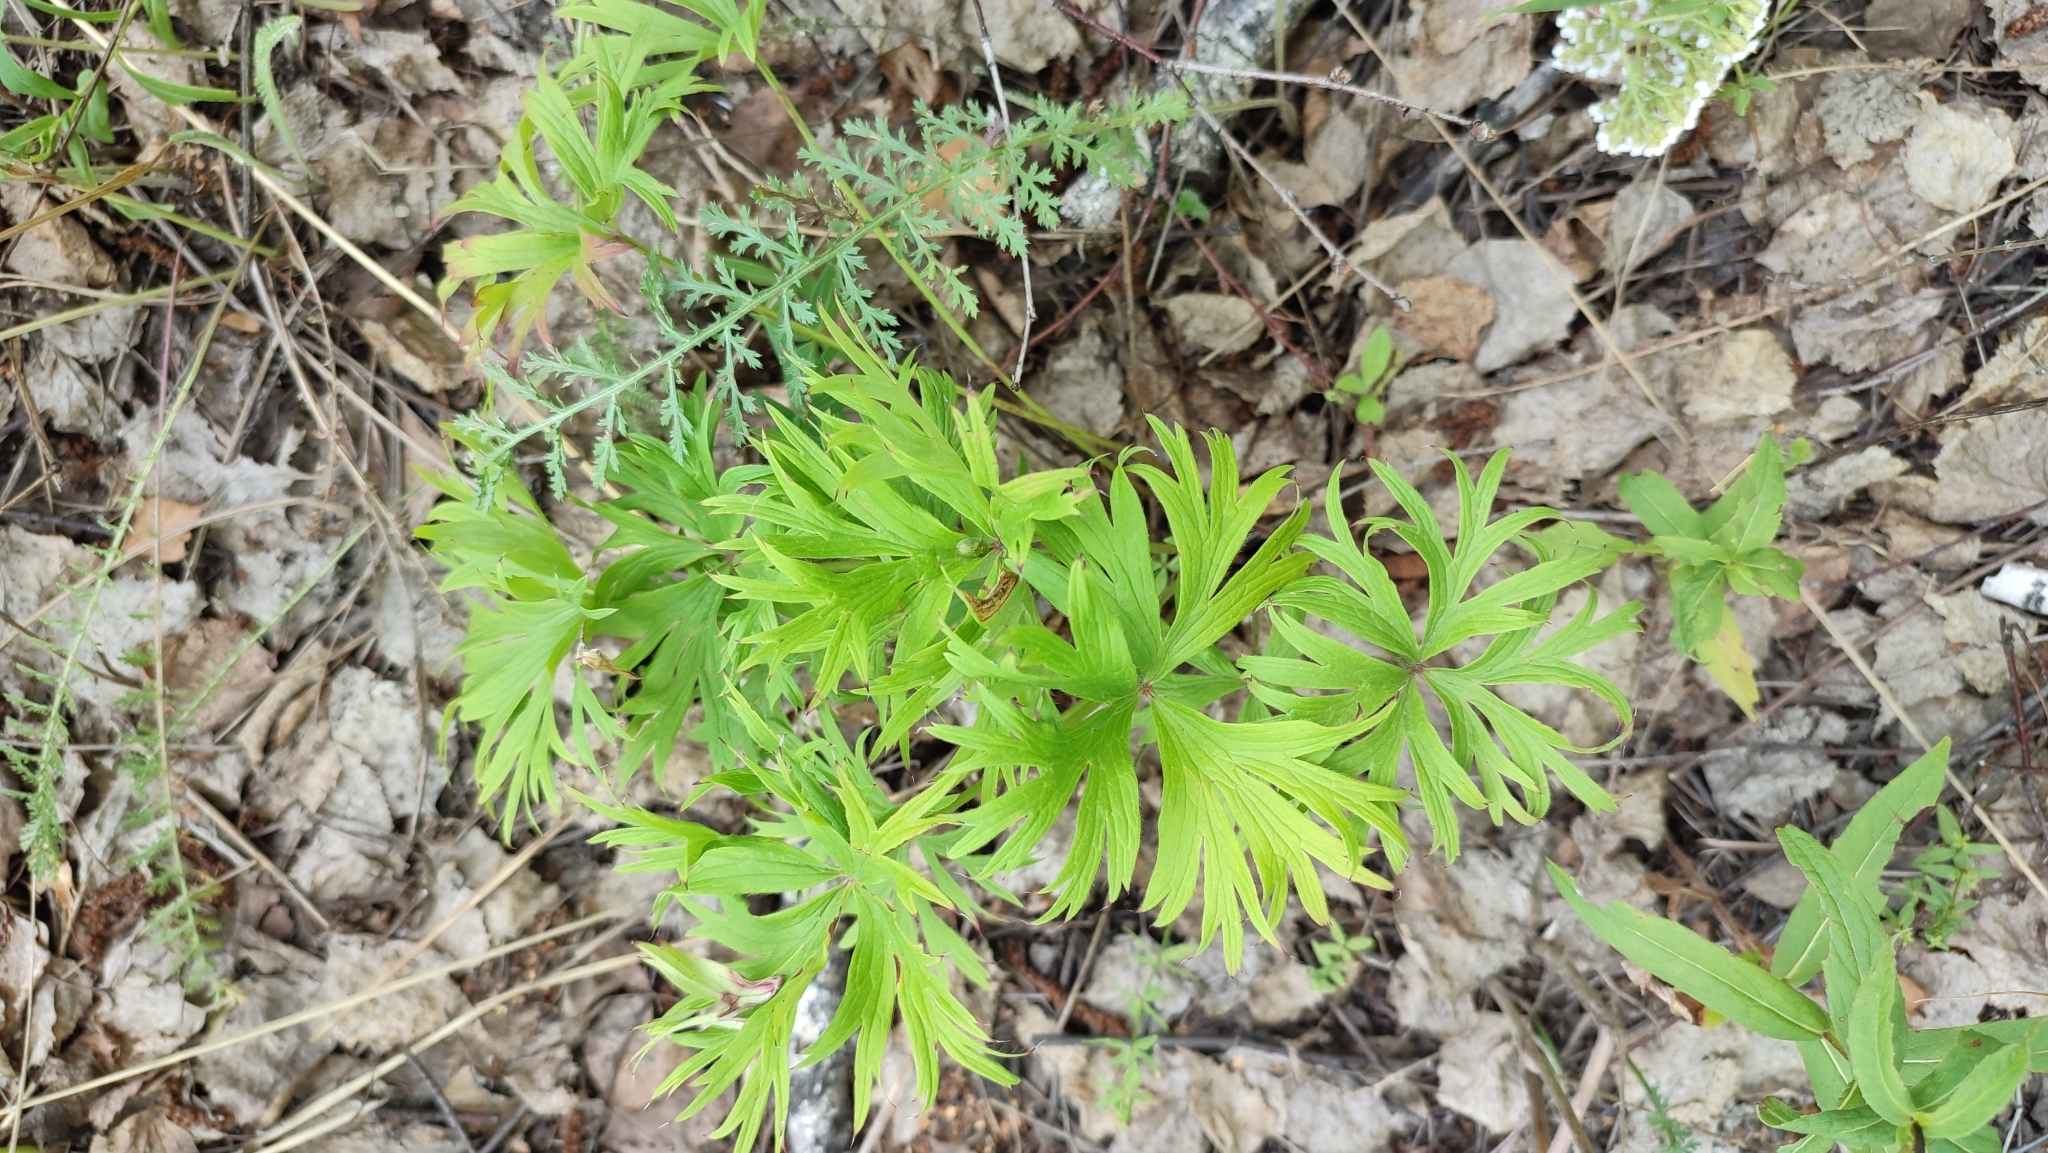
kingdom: Plantae
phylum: Tracheophyta
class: Magnoliopsida
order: Ranunculales
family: Ranunculaceae
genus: Pulsatilla
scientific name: Pulsatilla patens
